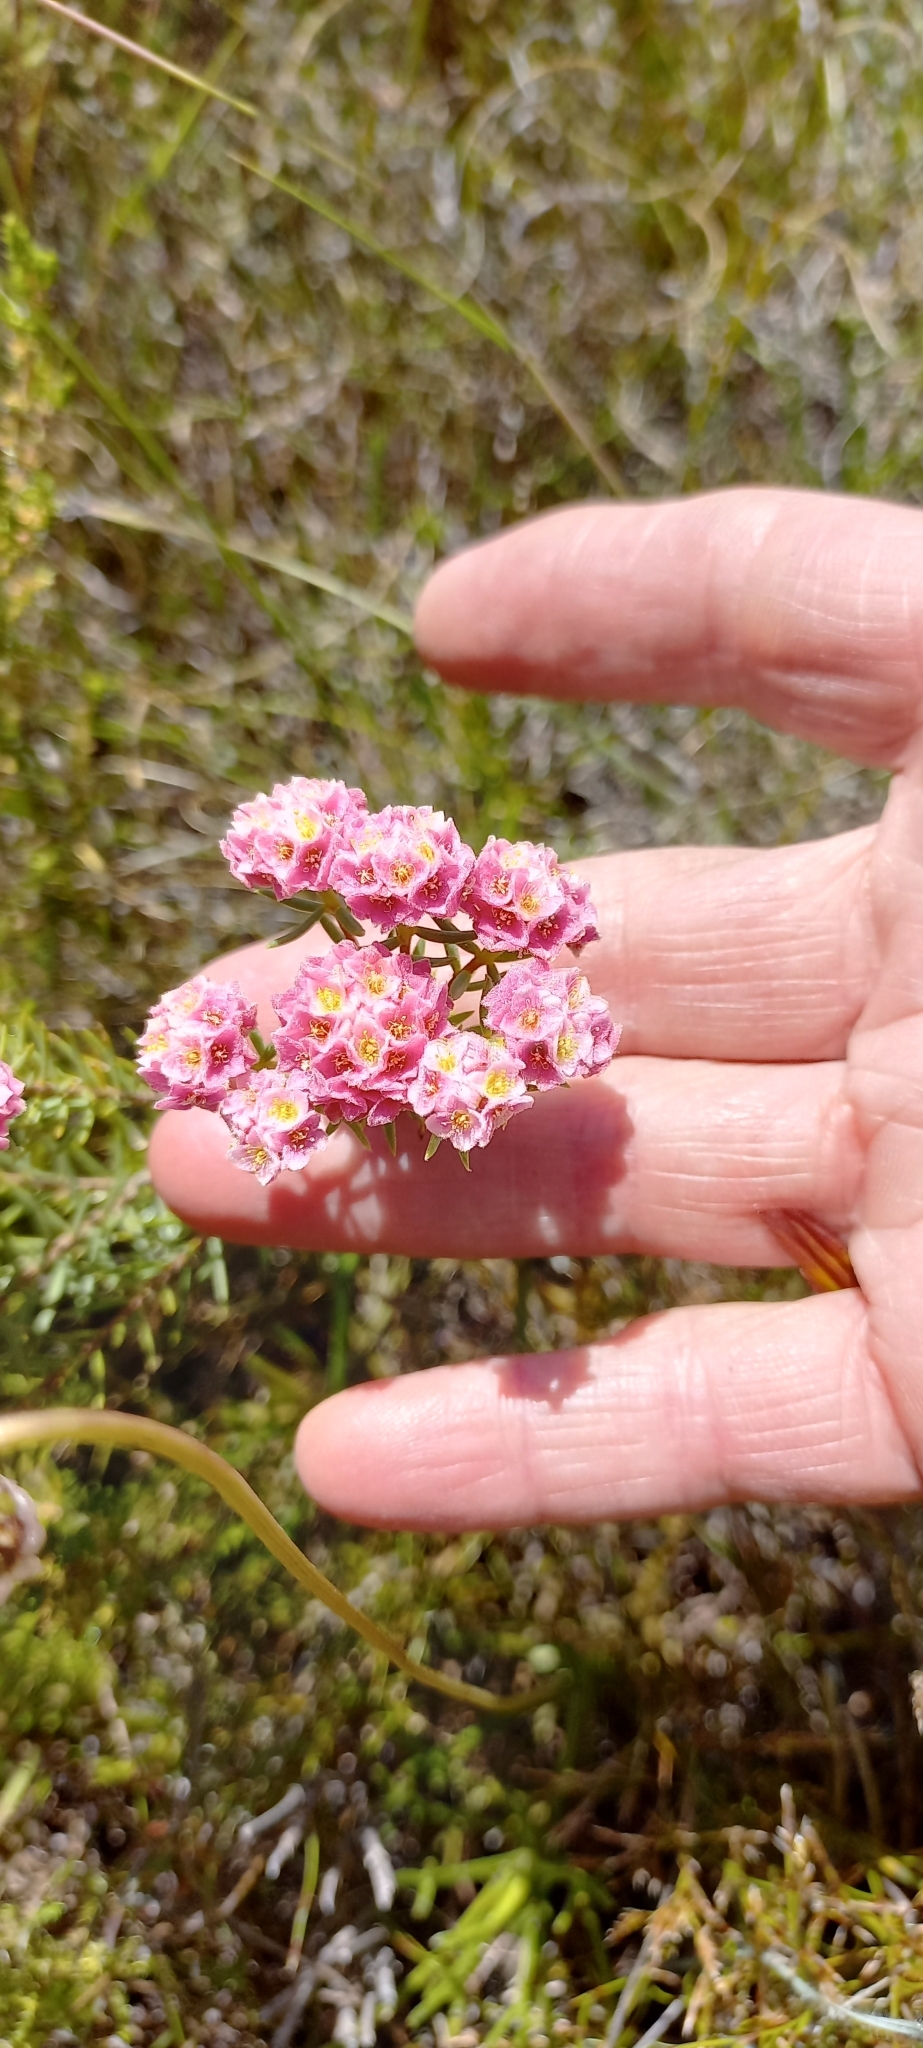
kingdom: Plantae
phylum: Tracheophyta
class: Magnoliopsida
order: Malvales
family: Thymelaeaceae
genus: Lachnaea
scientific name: Lachnaea densiflora
